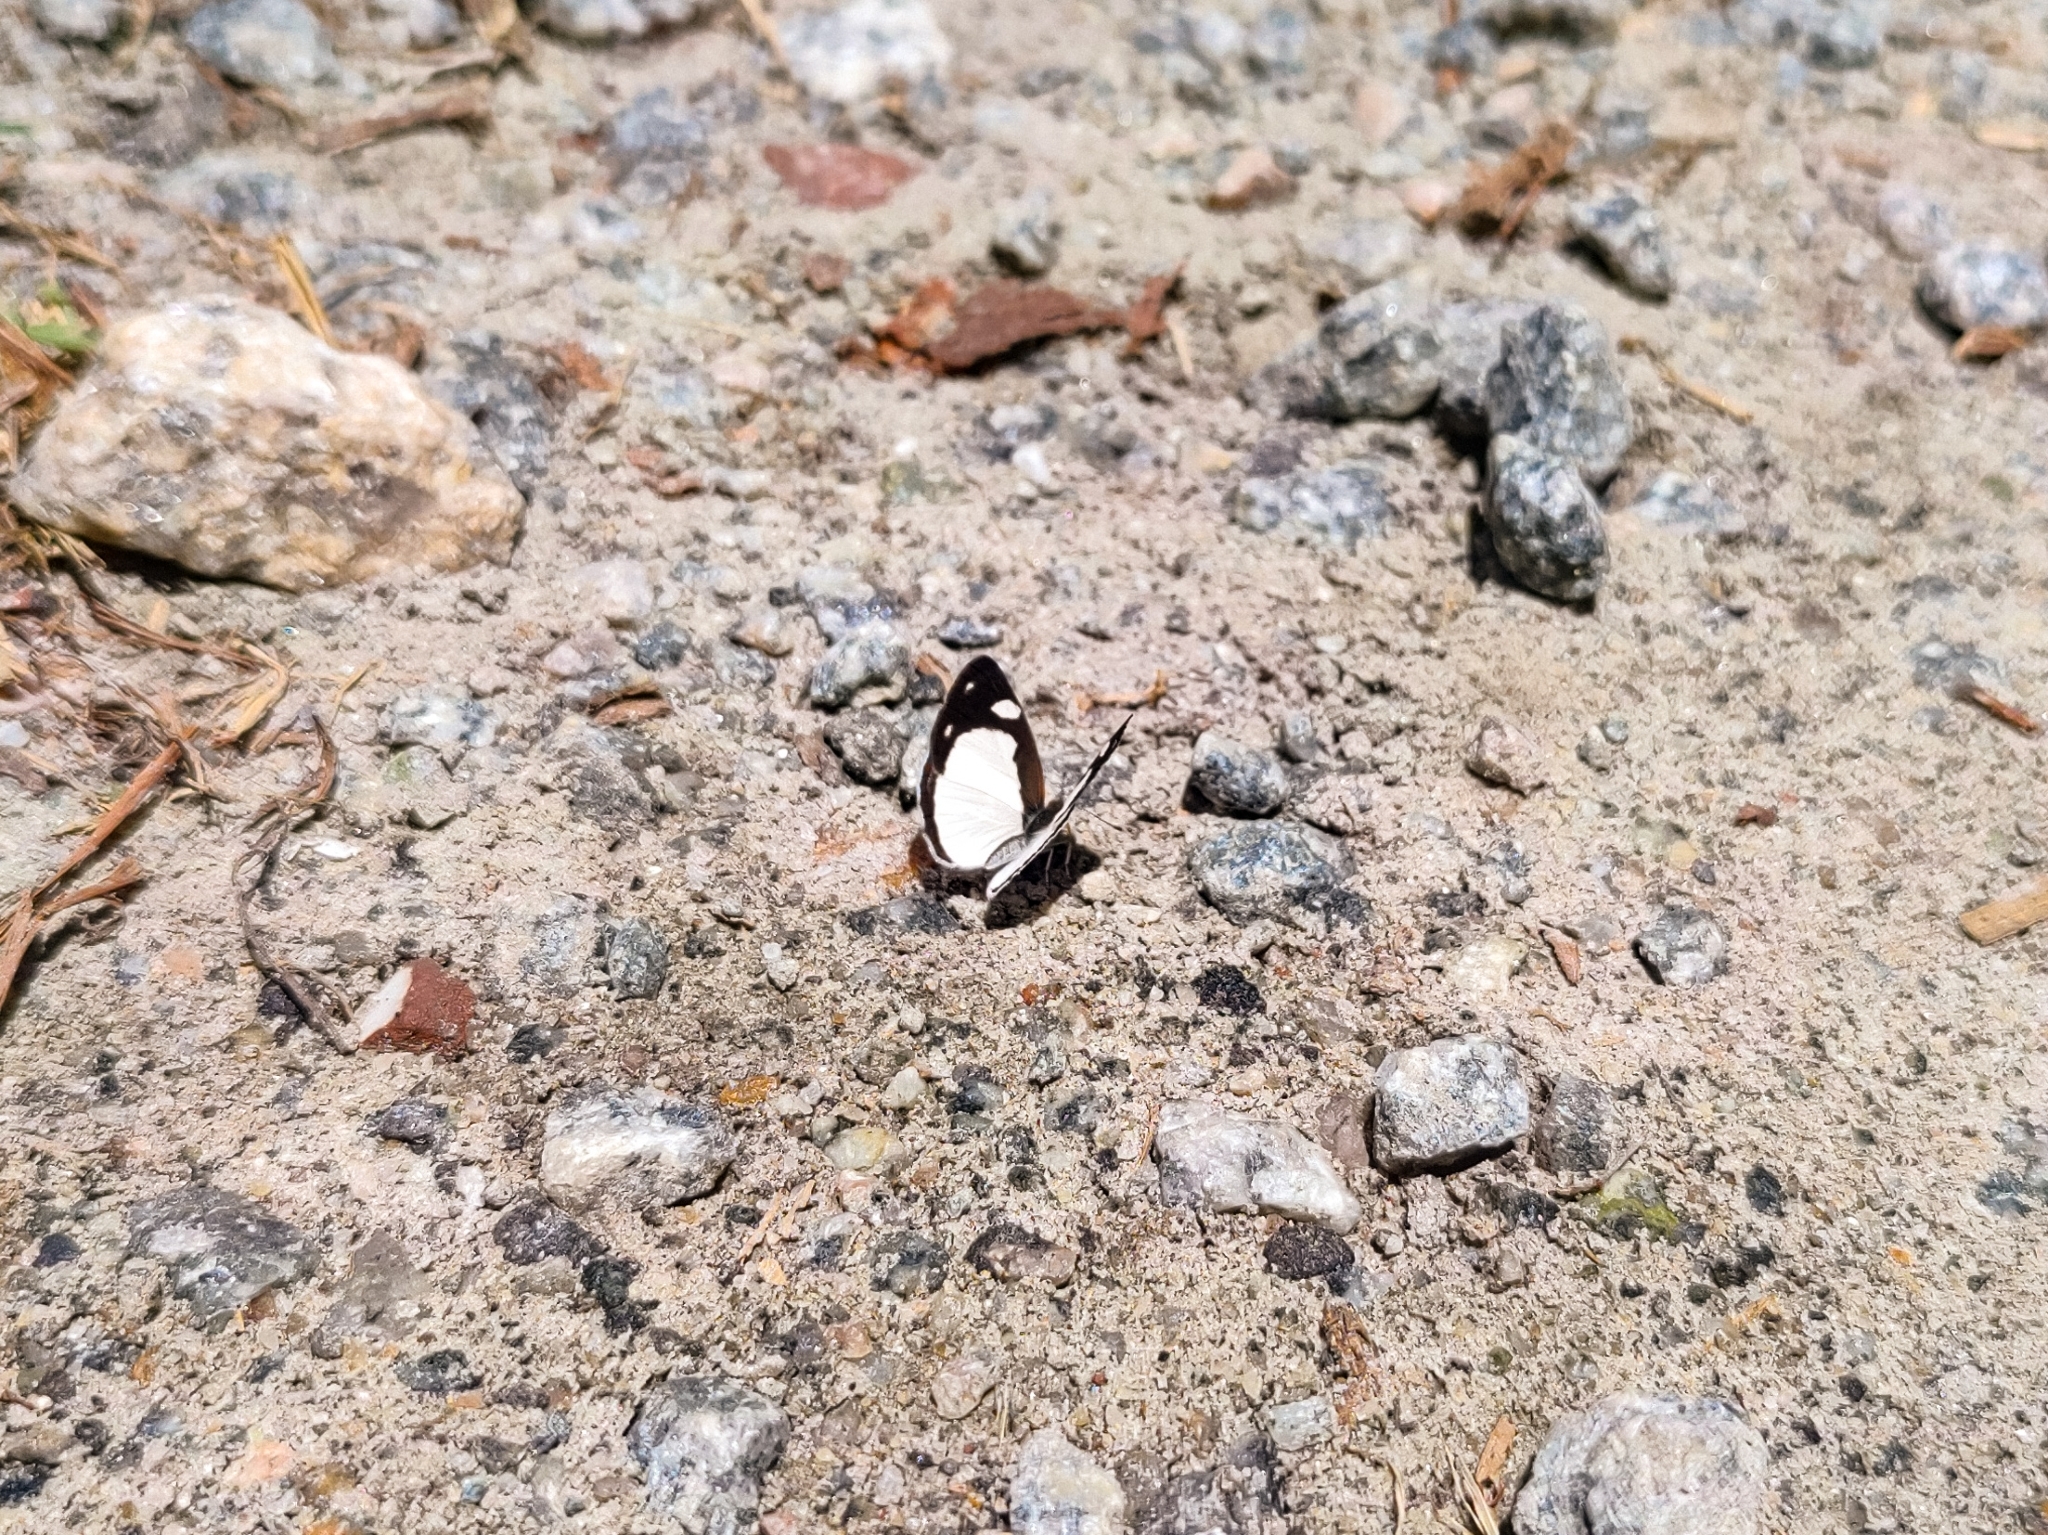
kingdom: Animalia
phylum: Arthropoda
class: Insecta
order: Lepidoptera
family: Nymphalidae
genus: Dynamine
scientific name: Dynamine agacles
